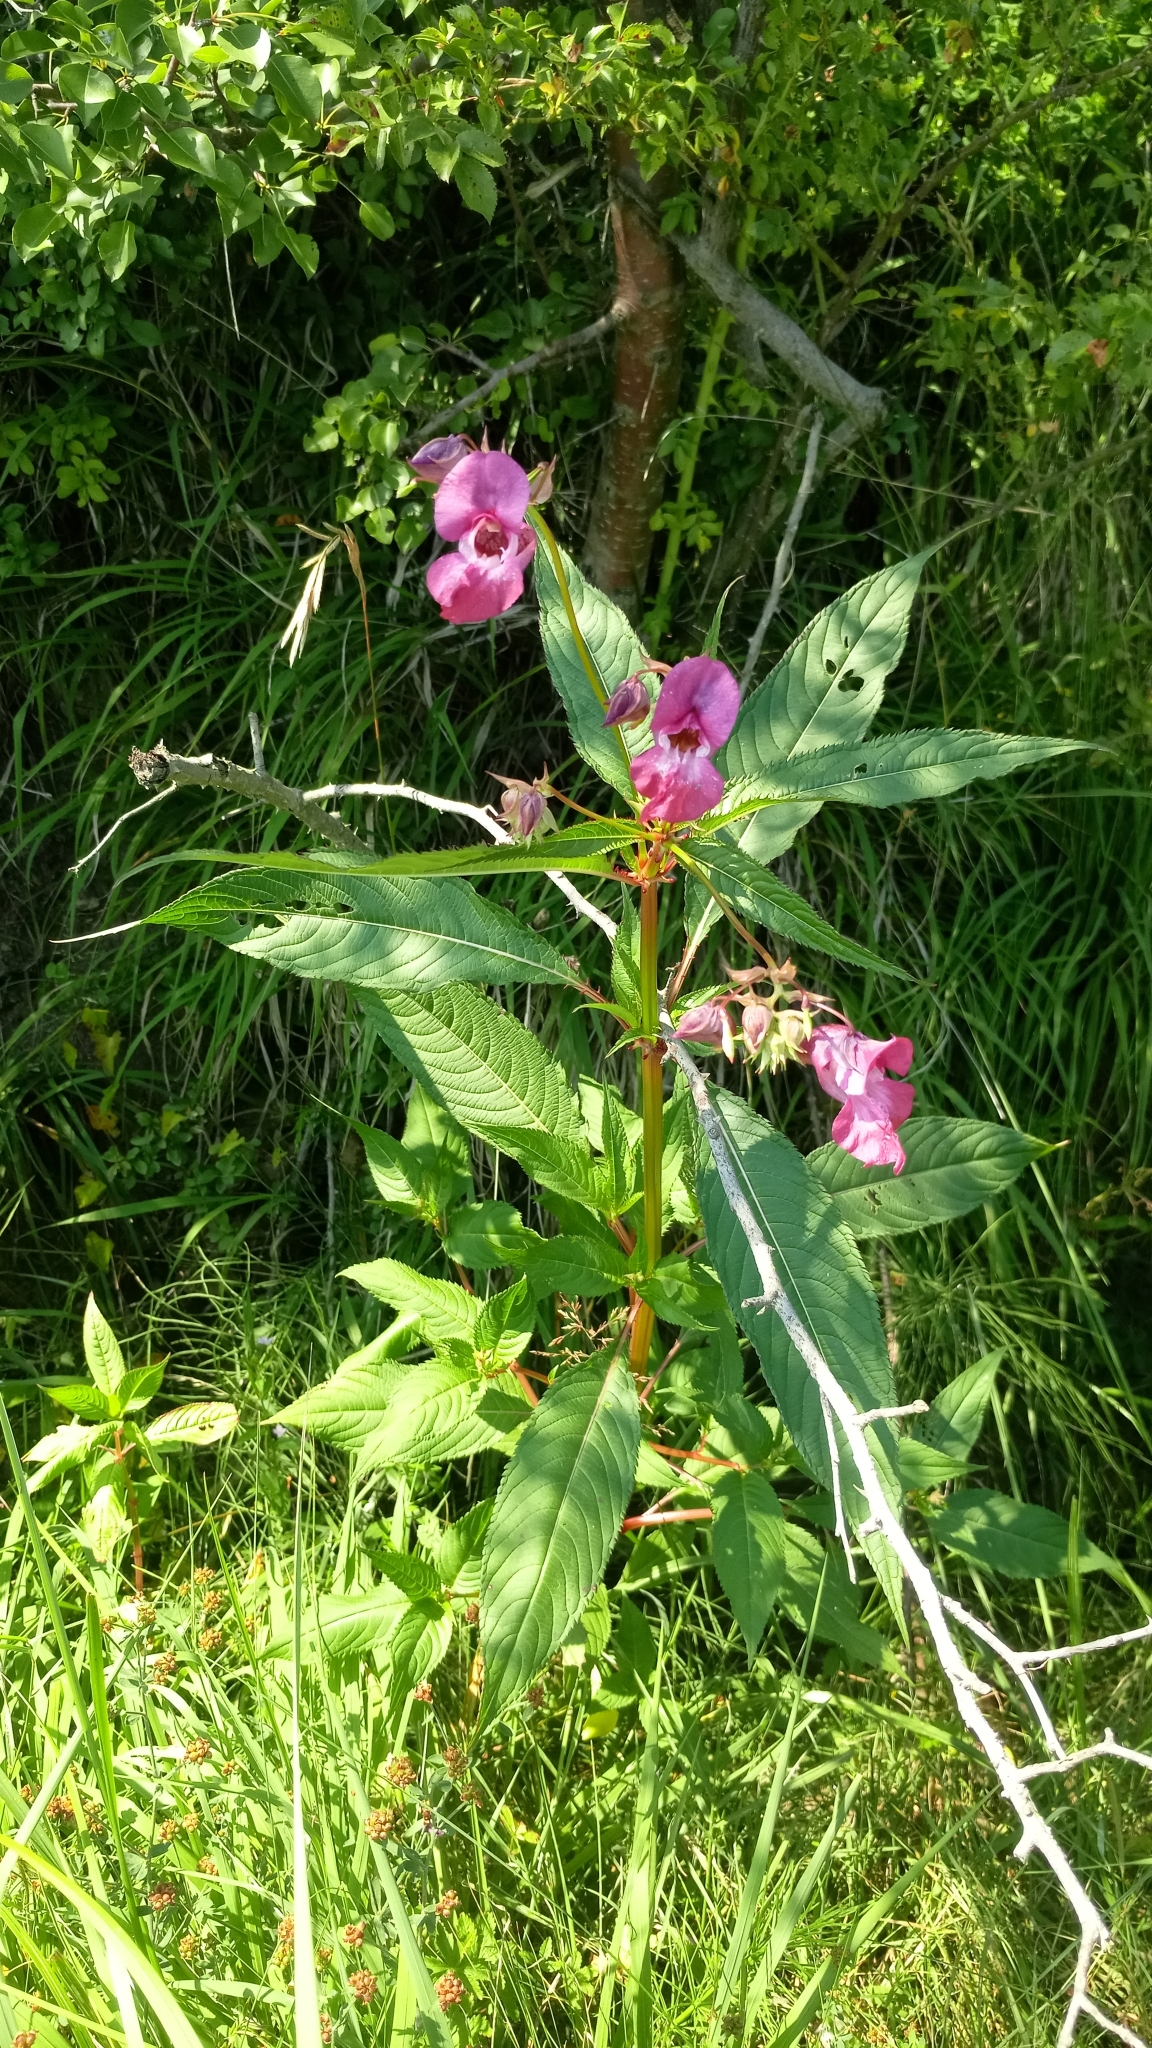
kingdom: Plantae
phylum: Tracheophyta
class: Magnoliopsida
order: Ericales
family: Balsaminaceae
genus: Impatiens
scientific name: Impatiens glandulifera
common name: Himalayan balsam
